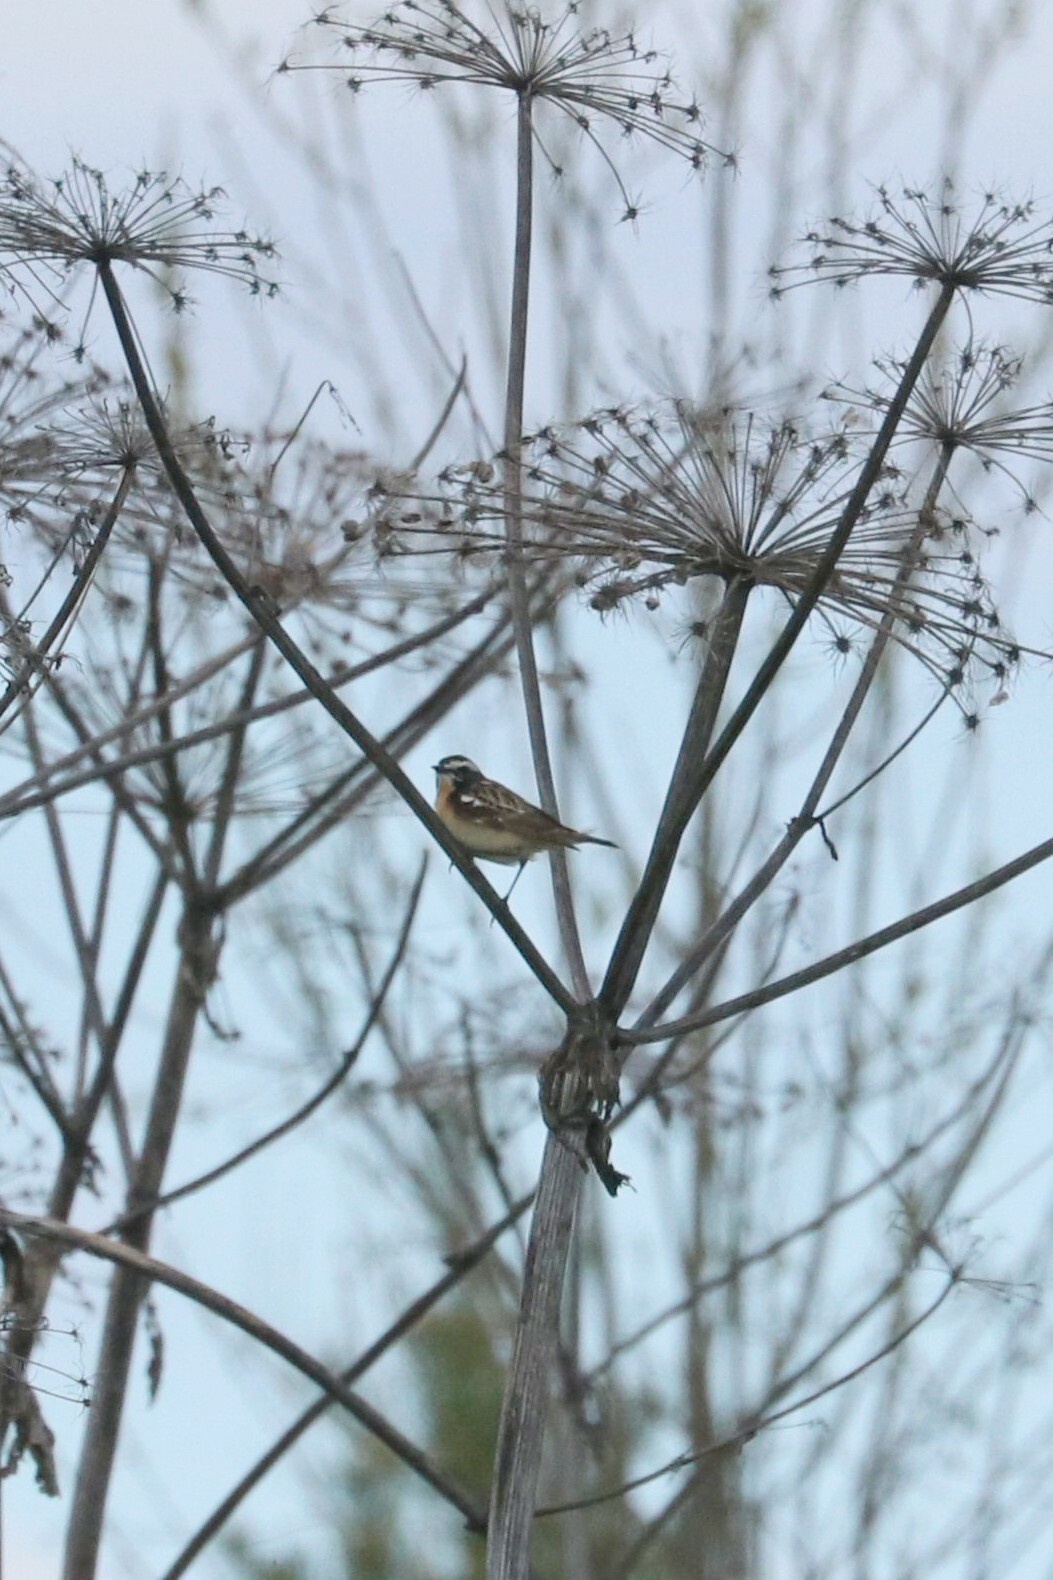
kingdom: Animalia
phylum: Chordata
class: Aves
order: Passeriformes
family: Muscicapidae
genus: Saxicola
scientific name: Saxicola rubetra
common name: Whinchat
